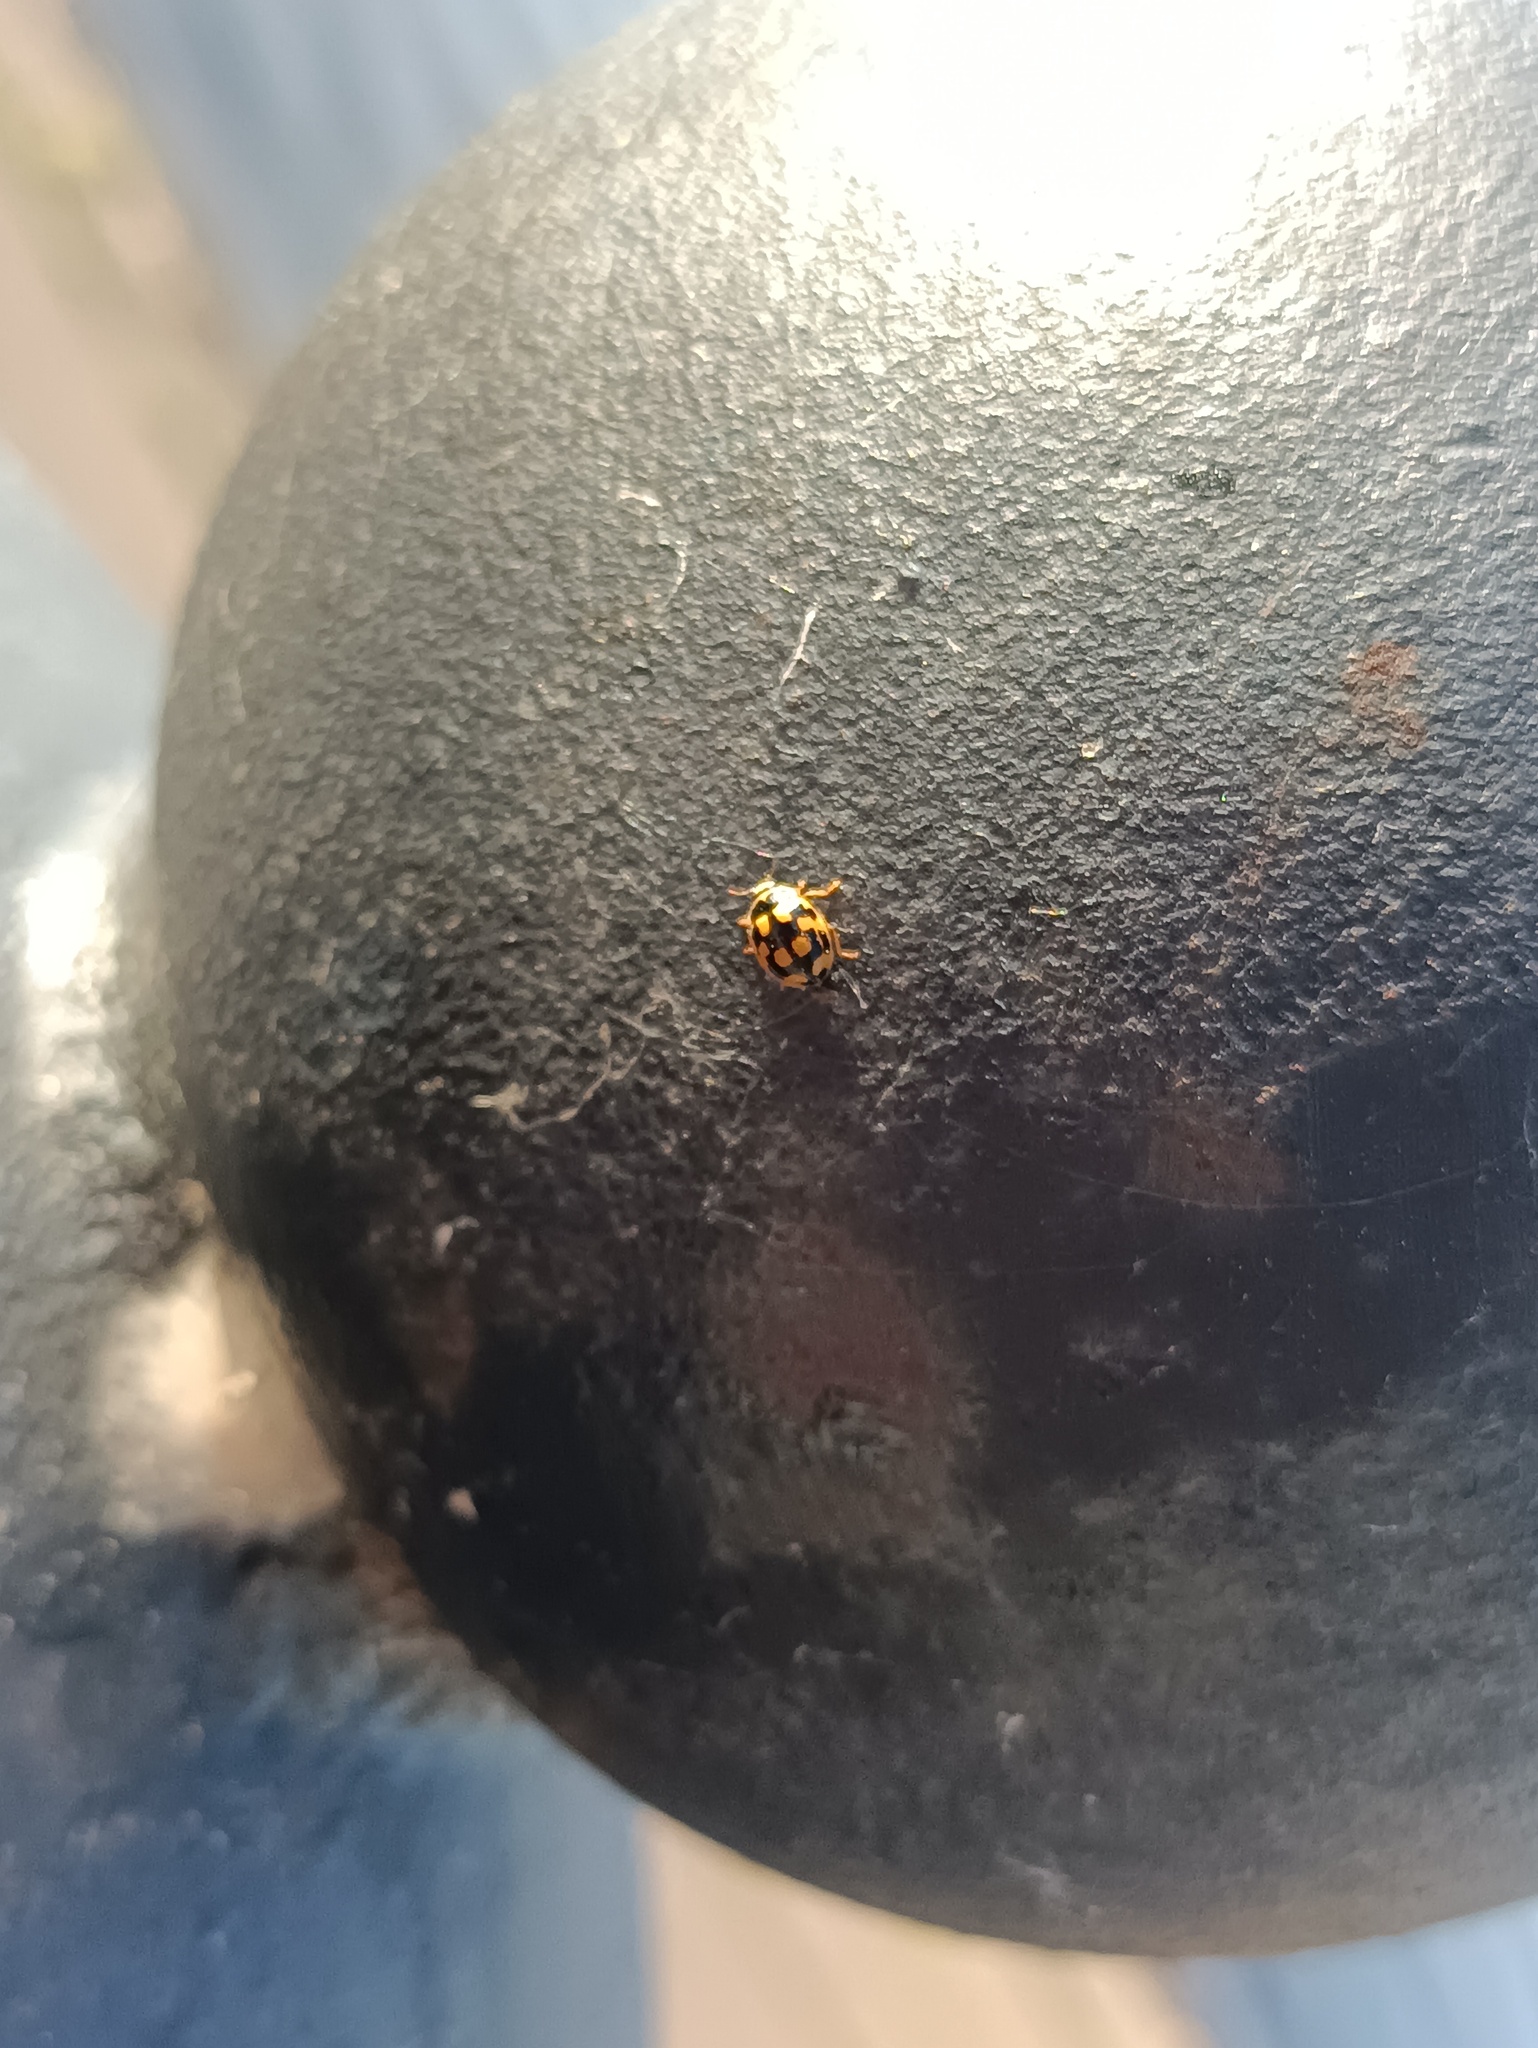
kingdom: Animalia
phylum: Arthropoda
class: Insecta
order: Coleoptera
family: Coccinellidae
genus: Propylaea
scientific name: Propylaea quatuordecimpunctata
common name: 14-spotted ladybird beetle
